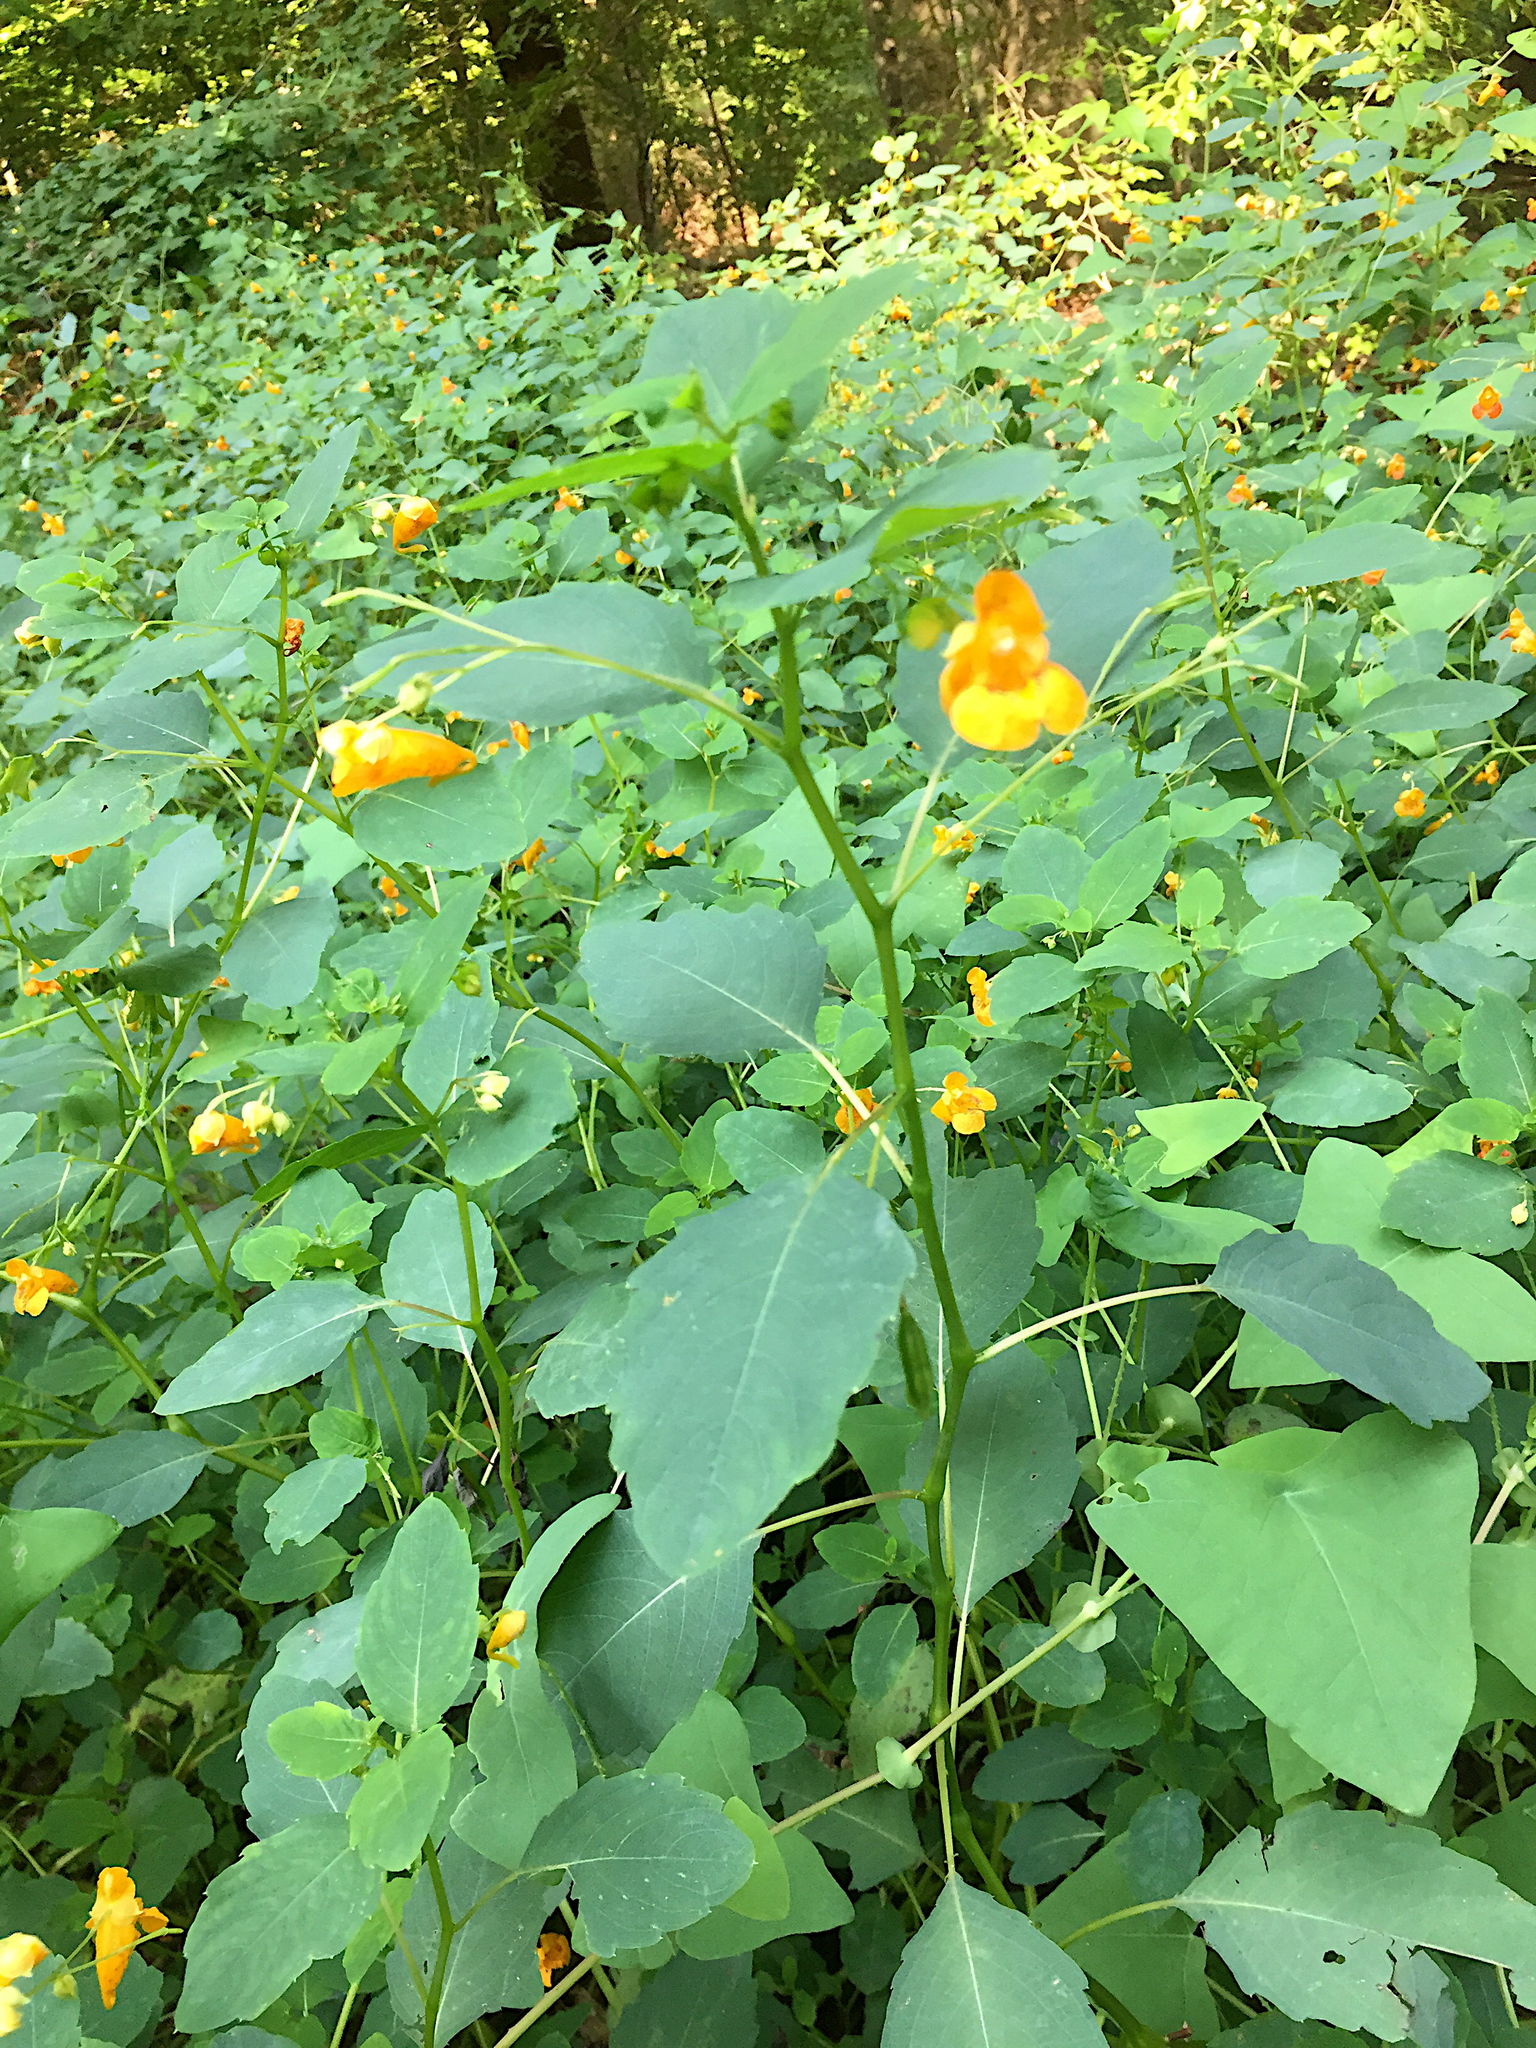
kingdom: Plantae
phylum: Tracheophyta
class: Magnoliopsida
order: Ericales
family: Balsaminaceae
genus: Impatiens
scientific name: Impatiens capensis
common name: Orange balsam
